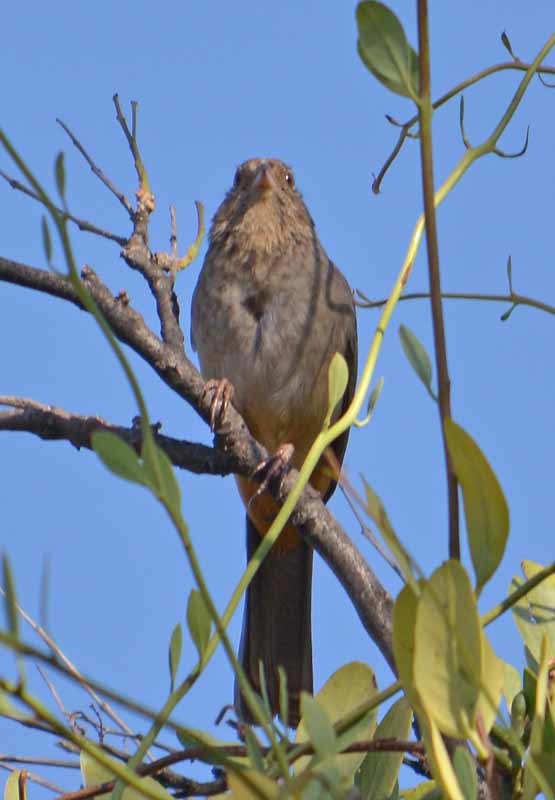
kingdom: Animalia
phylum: Chordata
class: Aves
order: Passeriformes
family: Passerellidae
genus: Melozone
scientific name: Melozone fusca
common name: Canyon towhee
